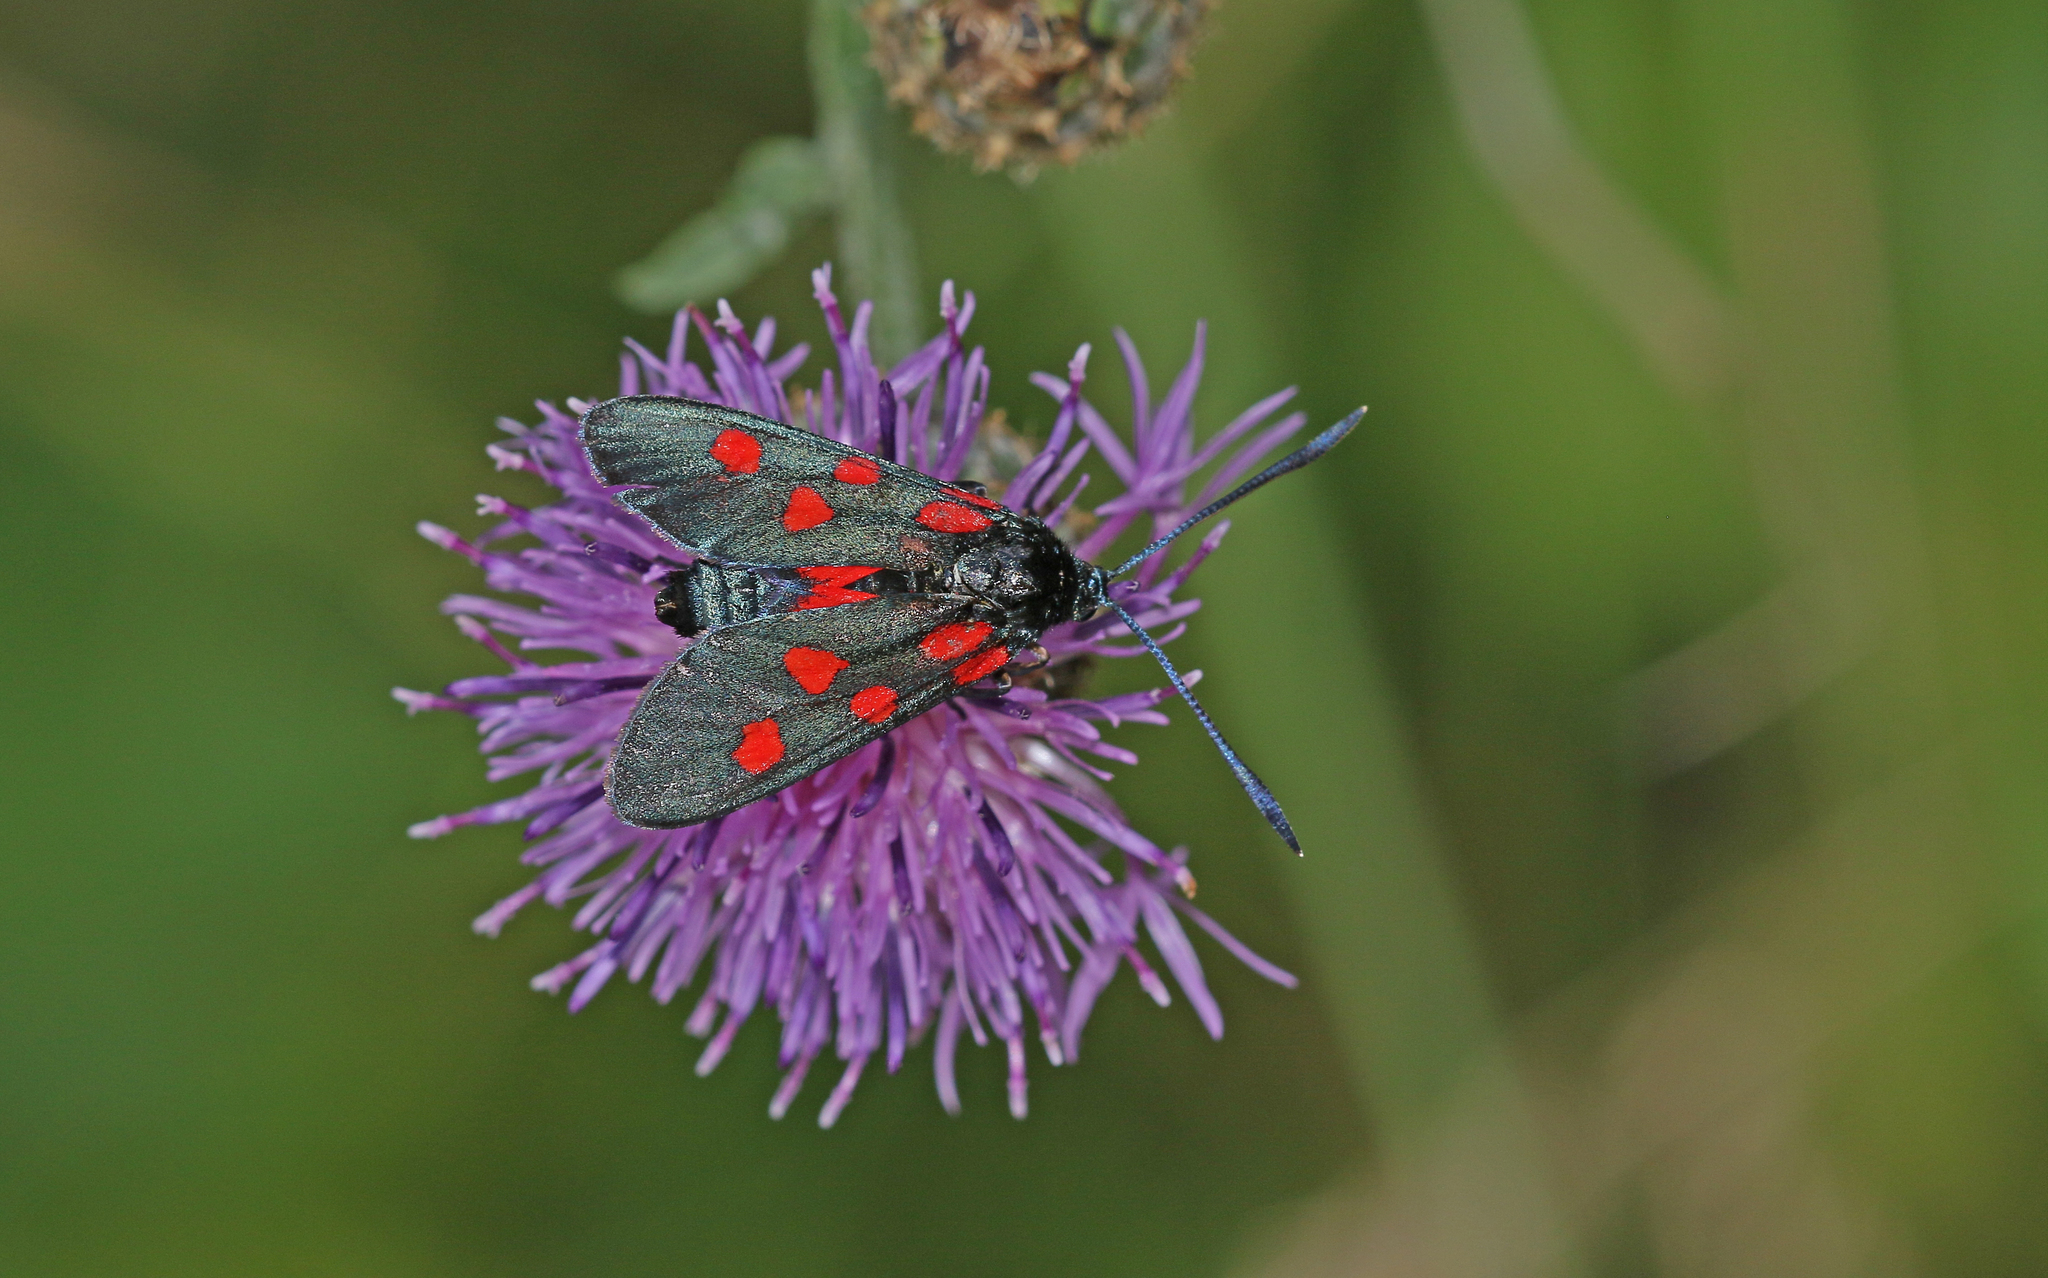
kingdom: Animalia
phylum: Arthropoda
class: Insecta
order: Lepidoptera
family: Zygaenidae
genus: Zygaena
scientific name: Zygaena angelicae
